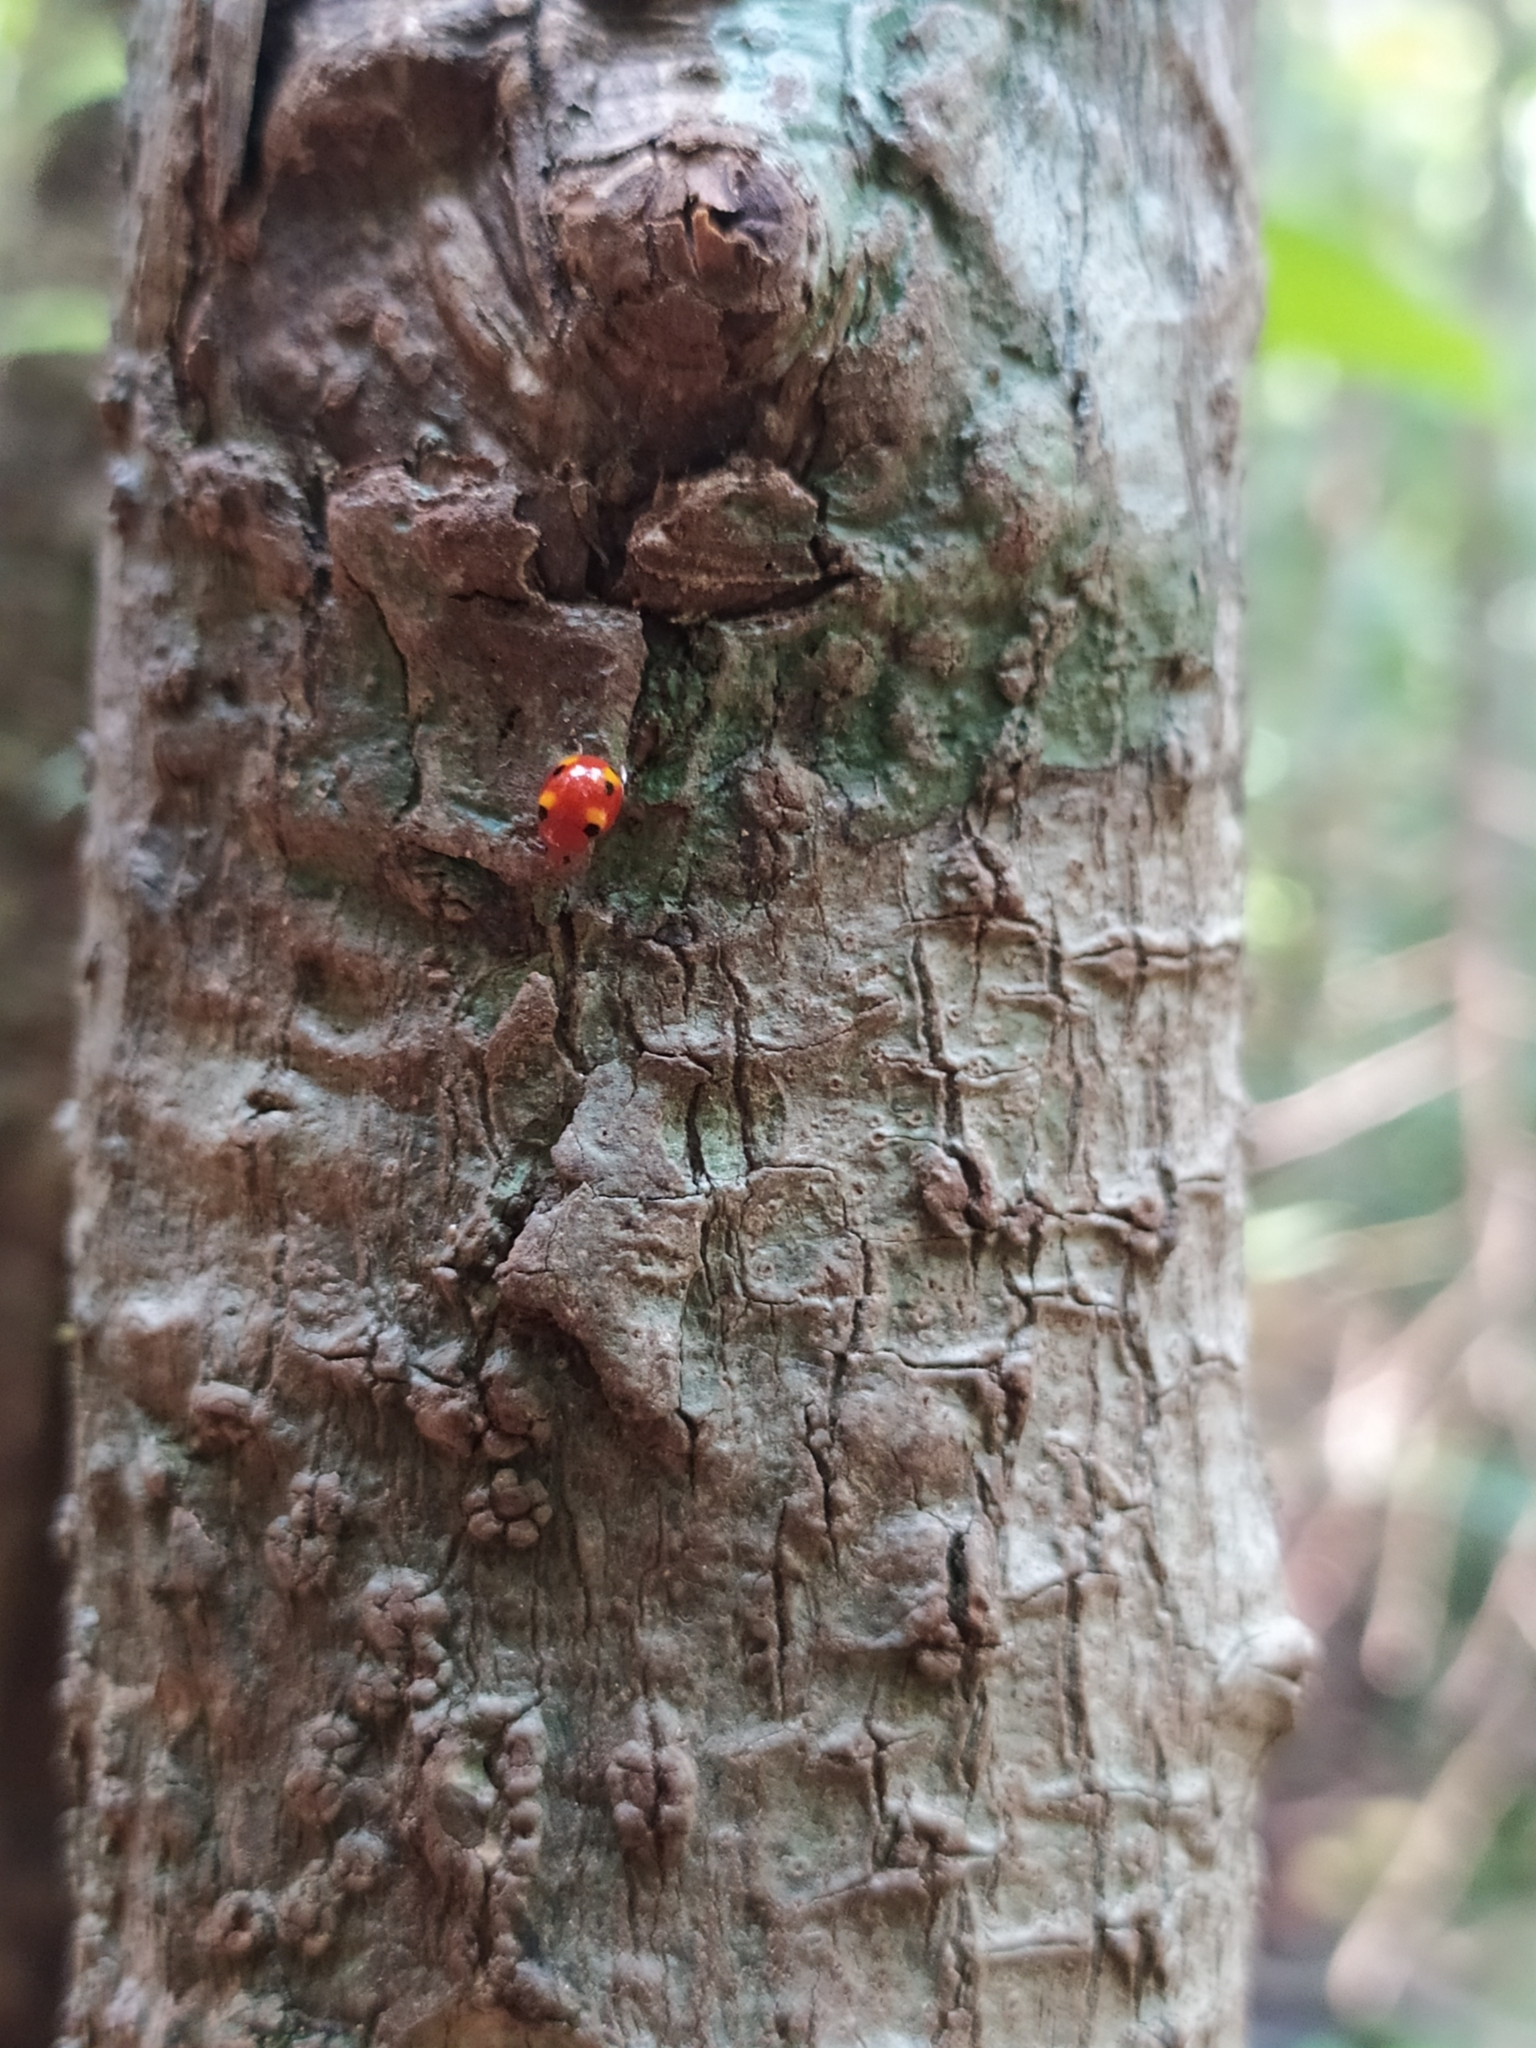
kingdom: Animalia
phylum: Arthropoda
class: Insecta
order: Coleoptera
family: Coccinellidae
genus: Buprestodera
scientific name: Buprestodera
